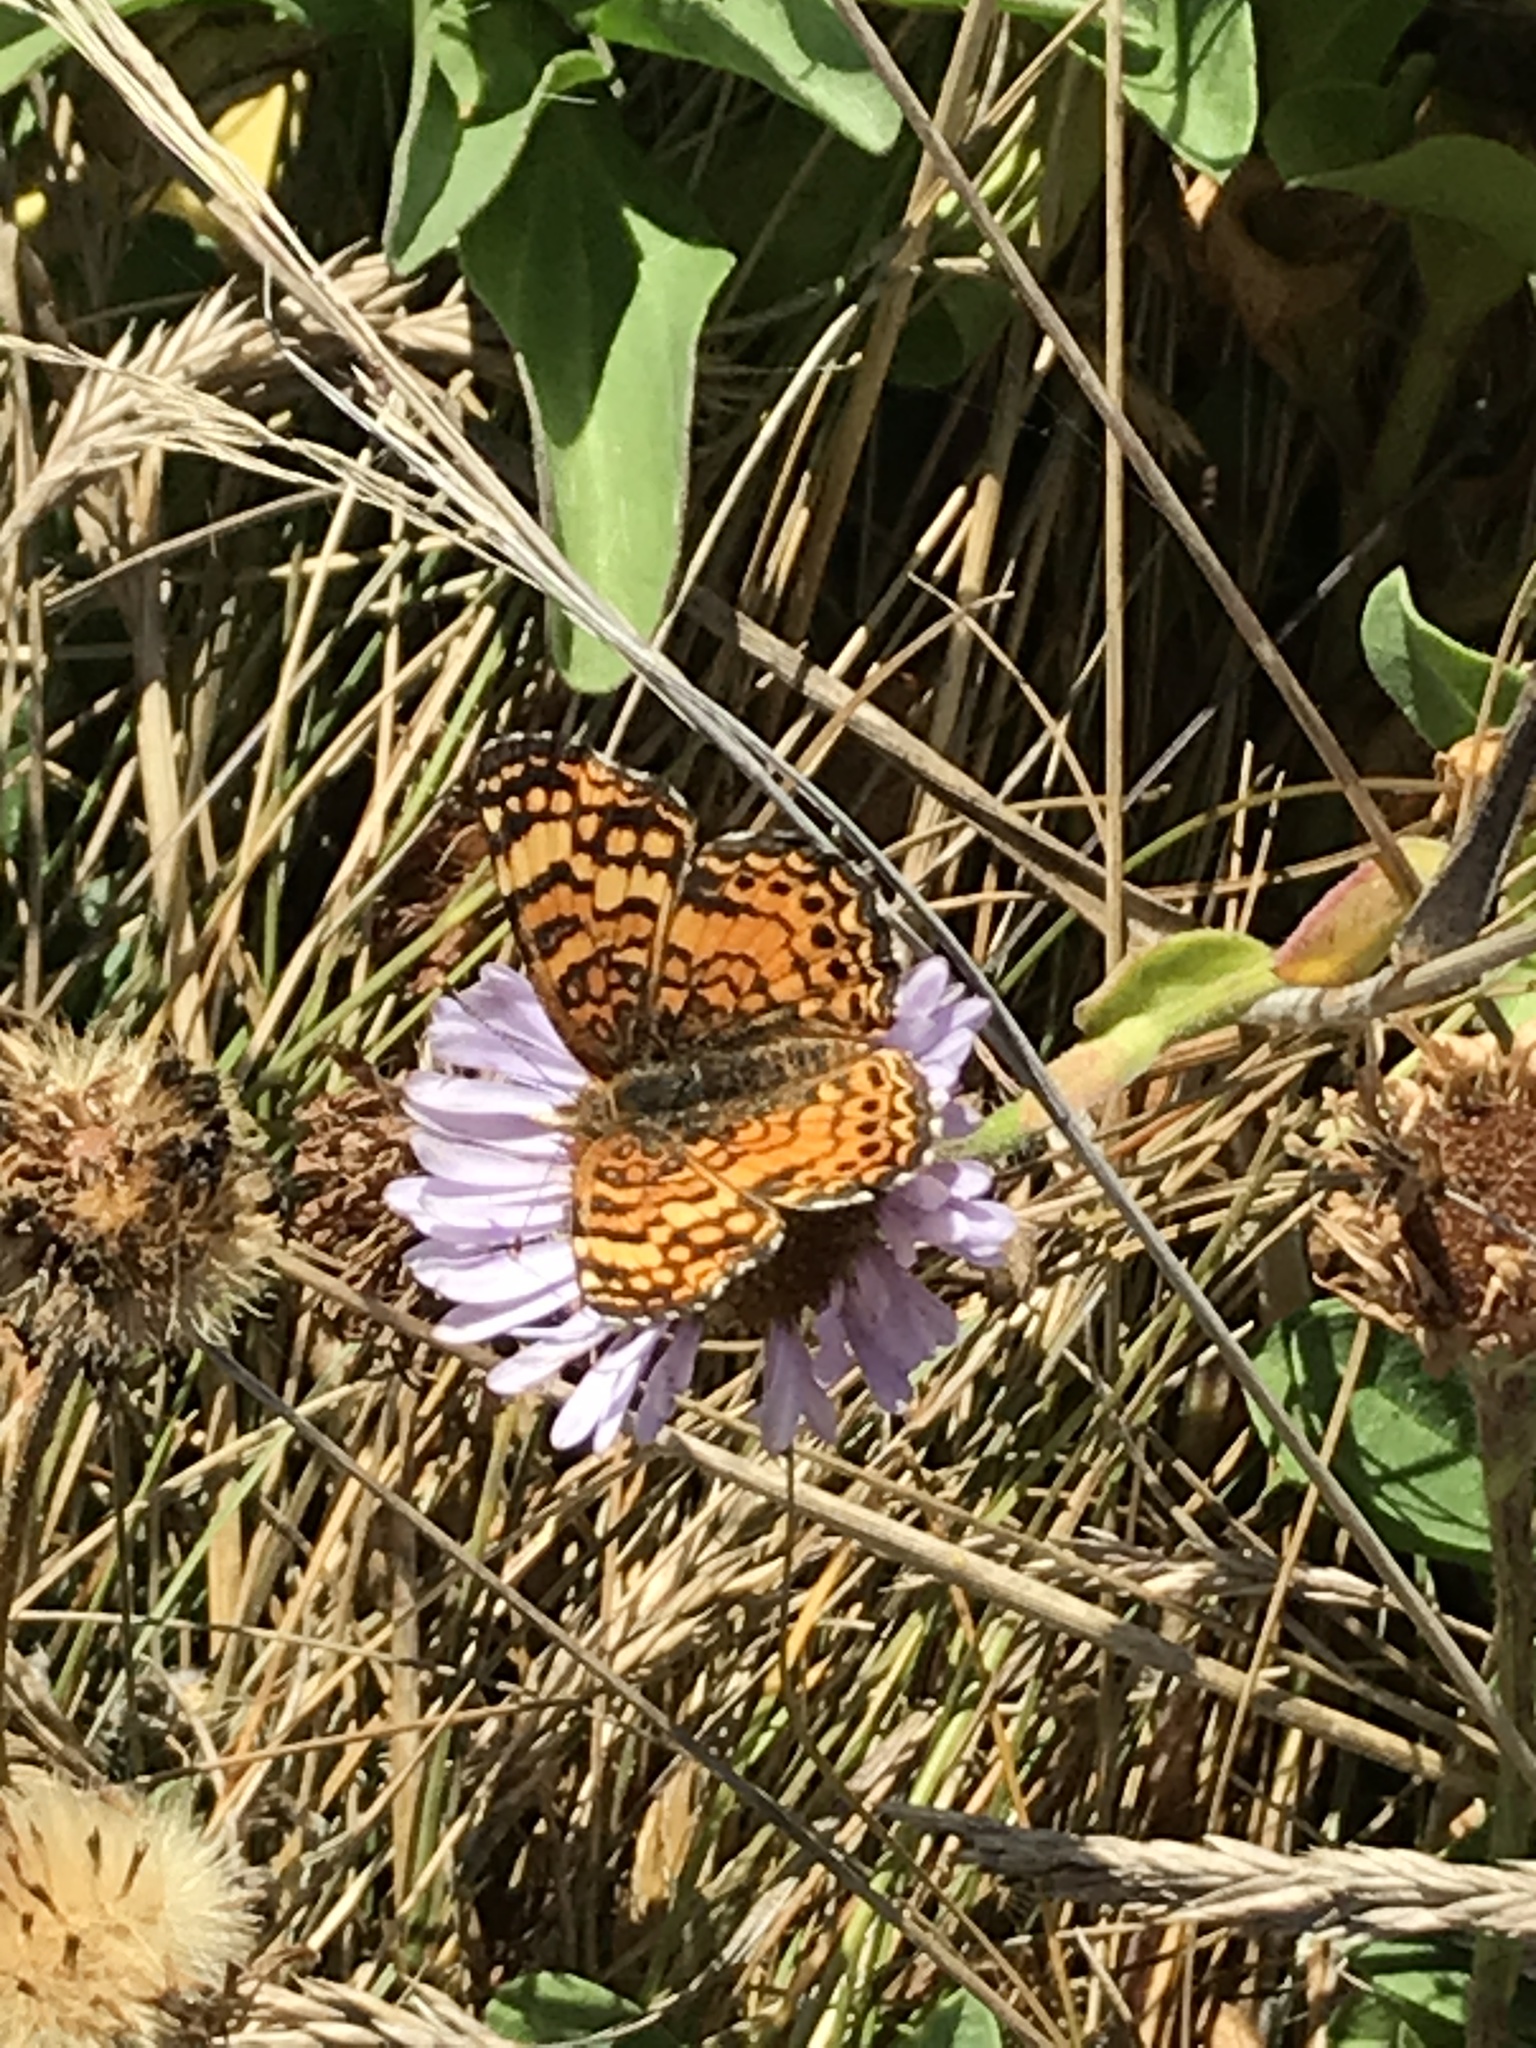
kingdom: Animalia
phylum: Arthropoda
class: Insecta
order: Lepidoptera
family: Nymphalidae
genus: Eresia
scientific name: Eresia aveyrona
